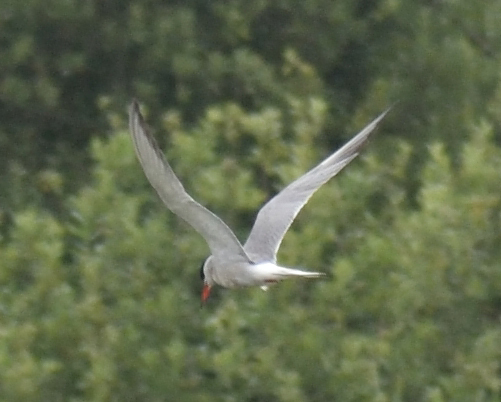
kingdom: Animalia
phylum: Chordata
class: Aves
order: Charadriiformes
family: Laridae
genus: Sterna
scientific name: Sterna hirundo
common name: Common tern
